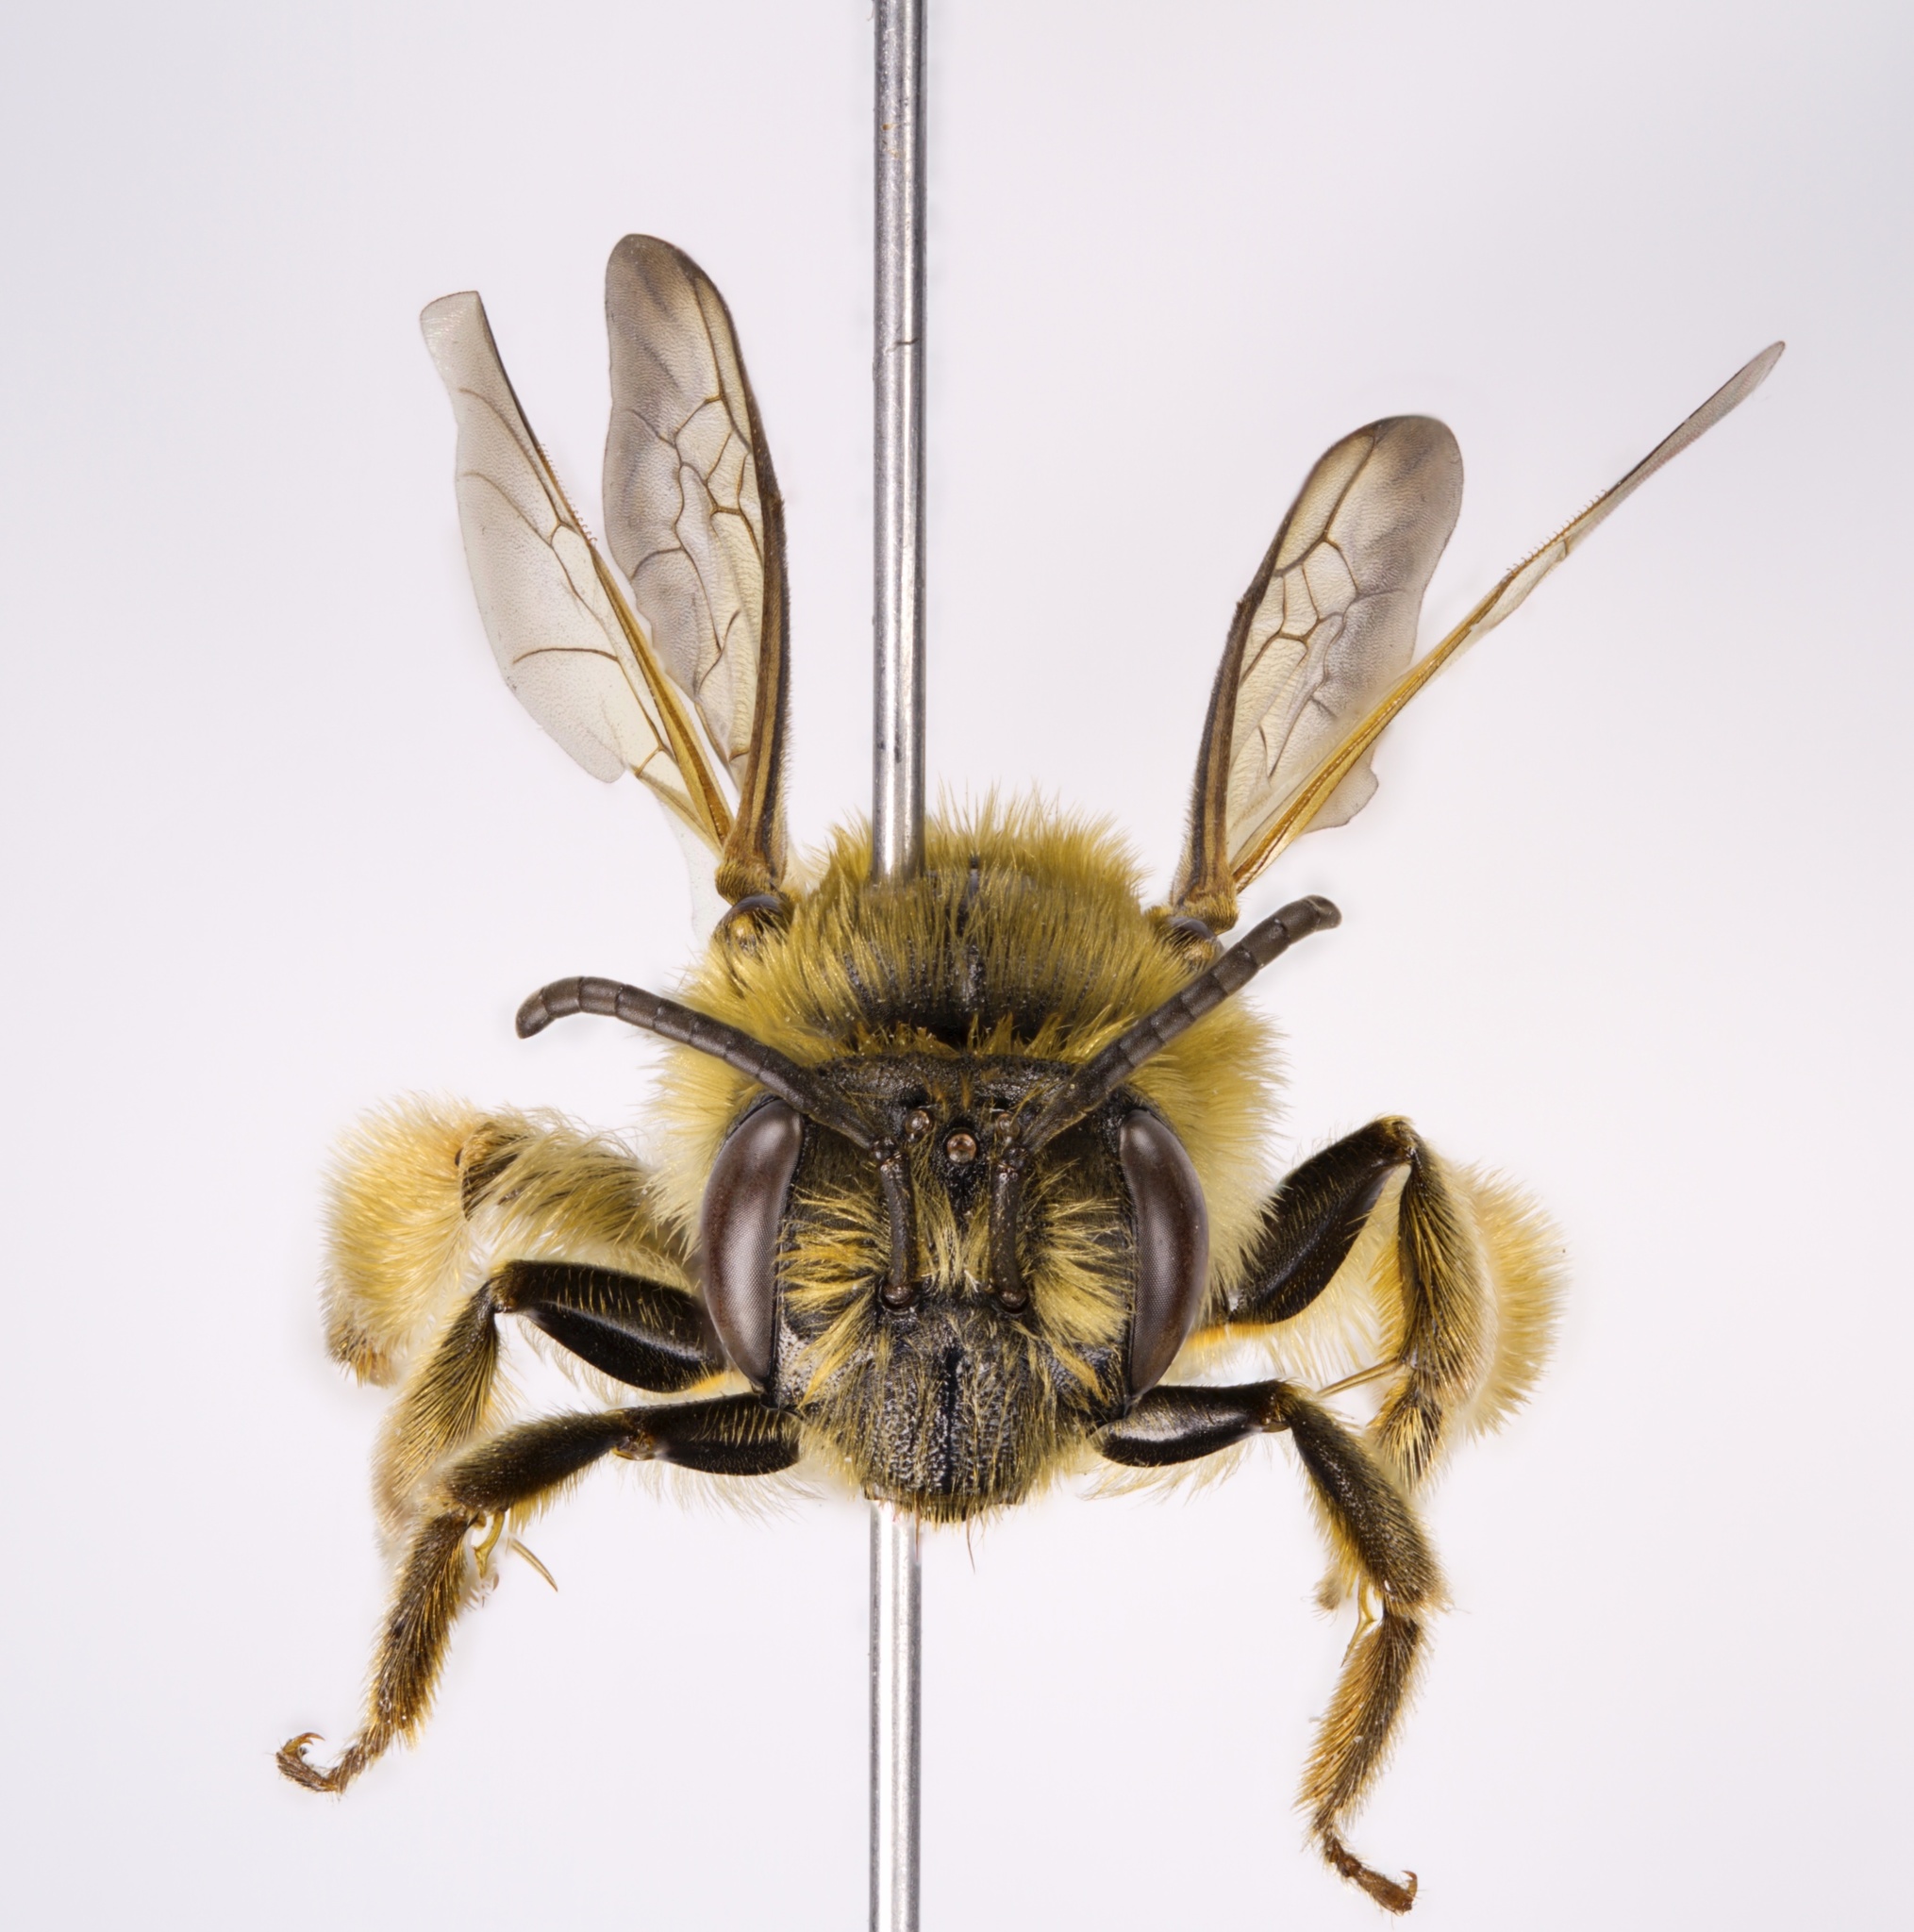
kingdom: Animalia
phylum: Arthropoda
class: Insecta
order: Hymenoptera
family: Andrenidae
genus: Andrena
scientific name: Andrena hilaris
